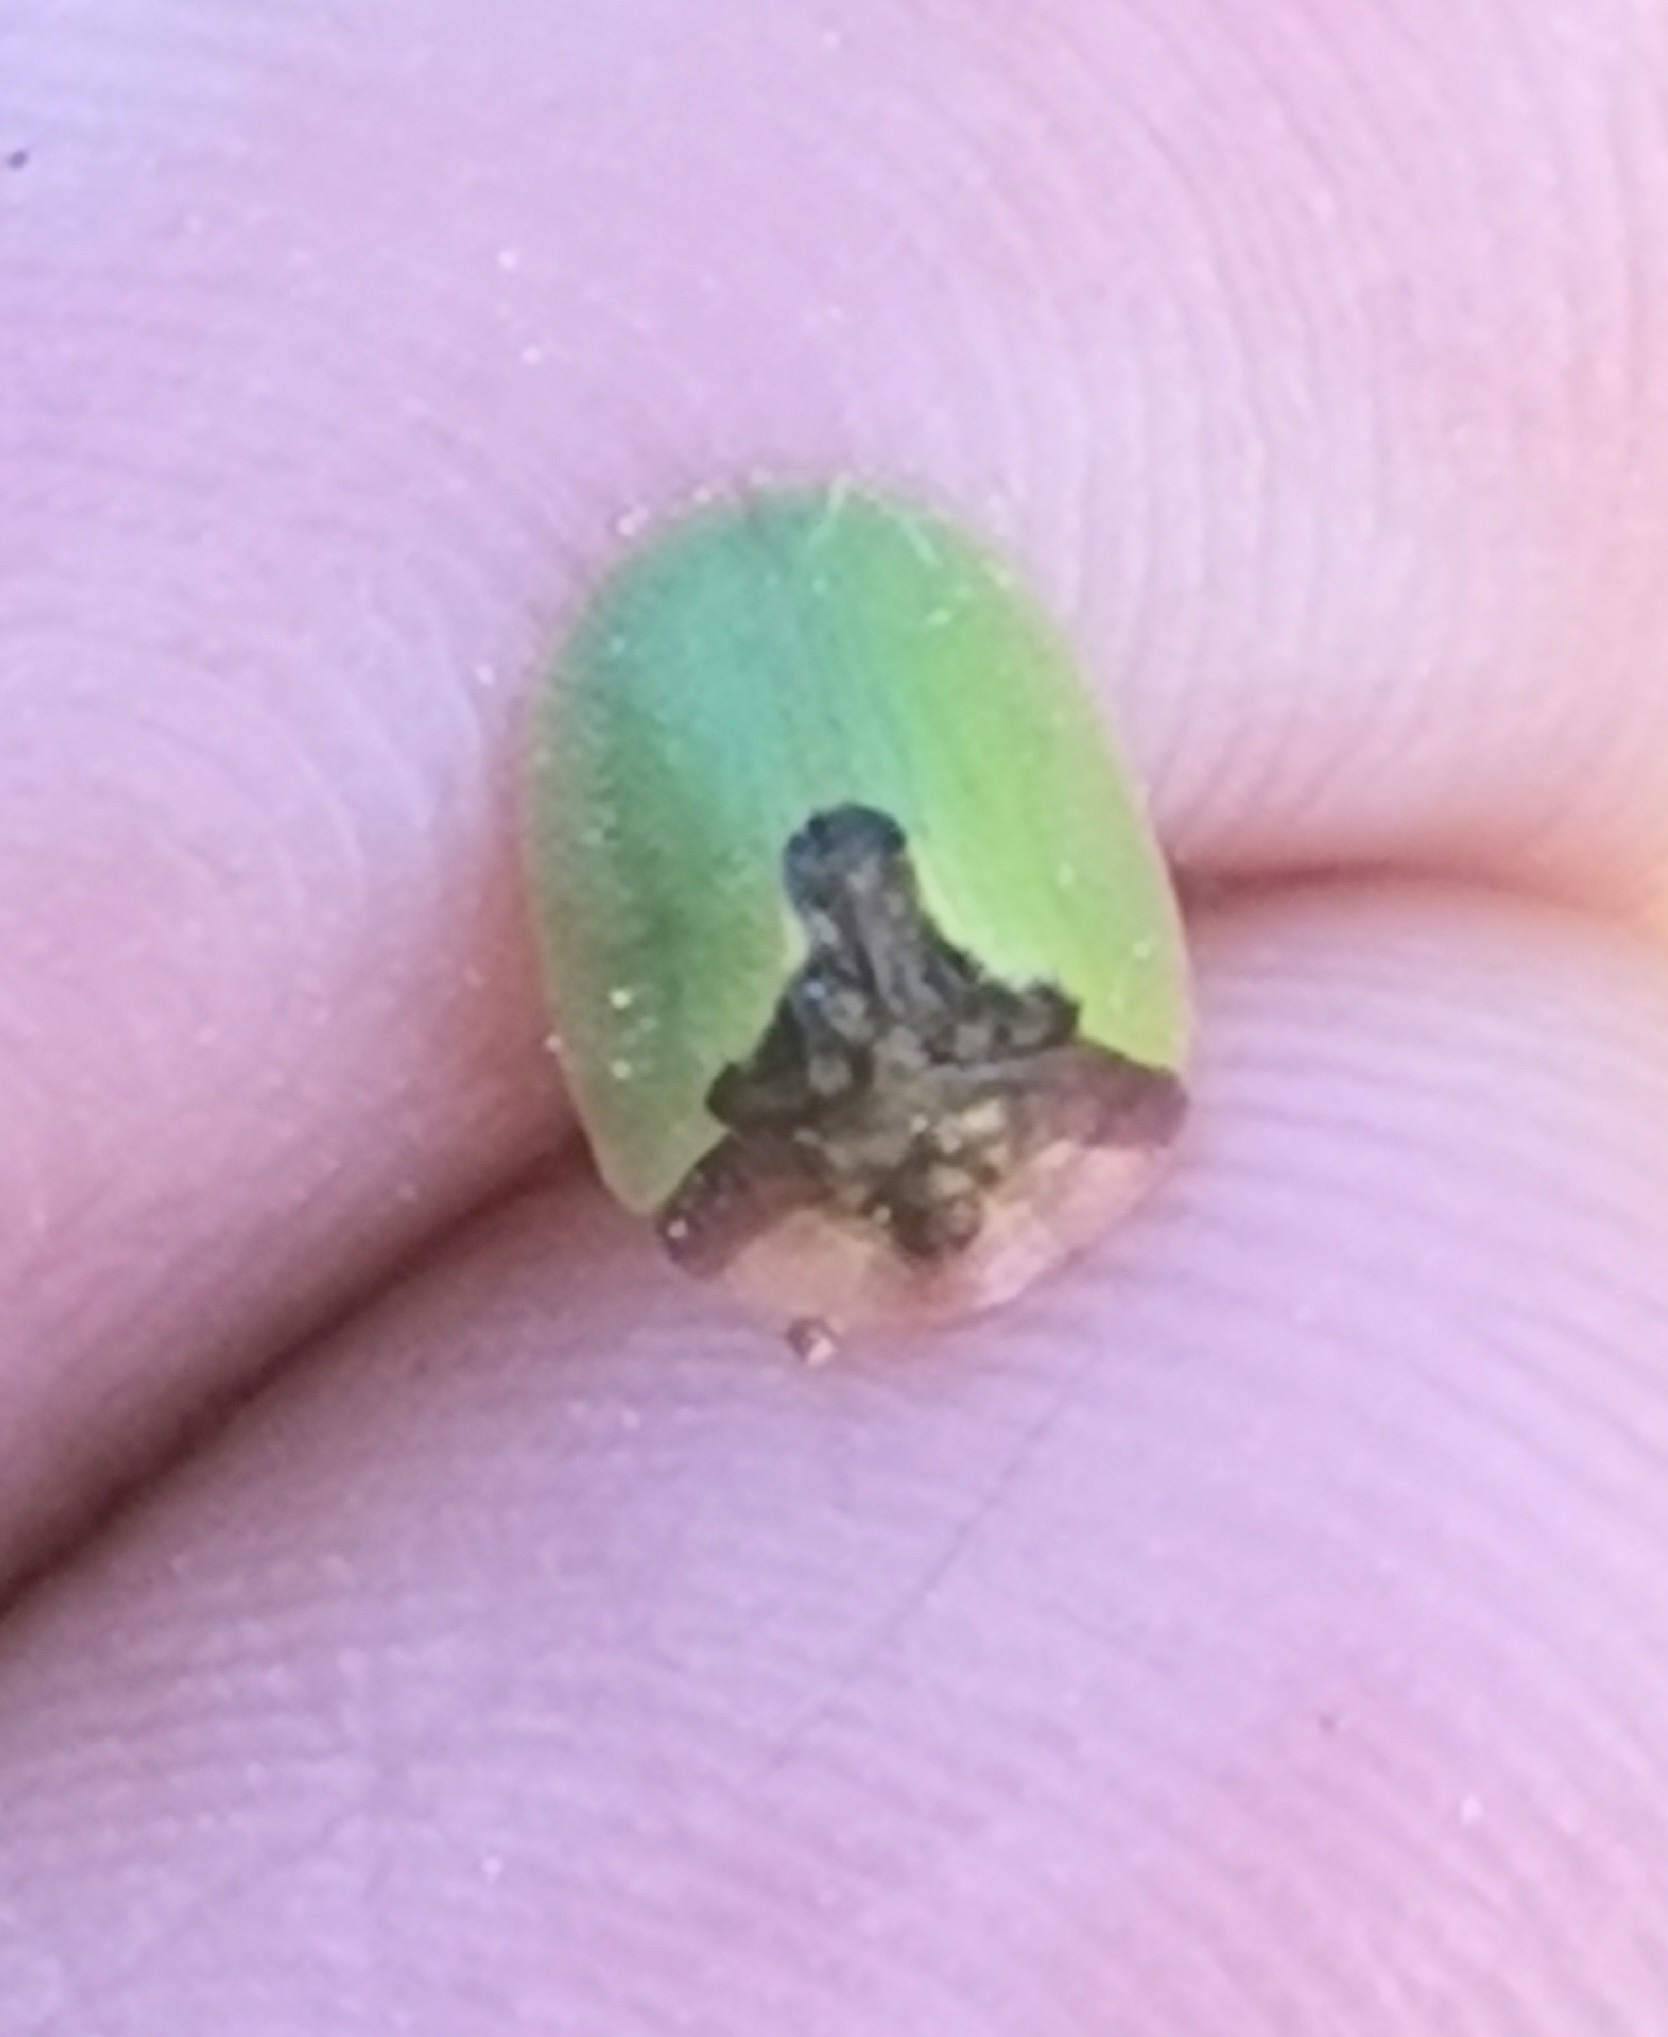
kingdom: Animalia
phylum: Arthropoda
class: Insecta
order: Coleoptera
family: Chrysomelidae
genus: Cassida
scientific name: Cassida panzeri
